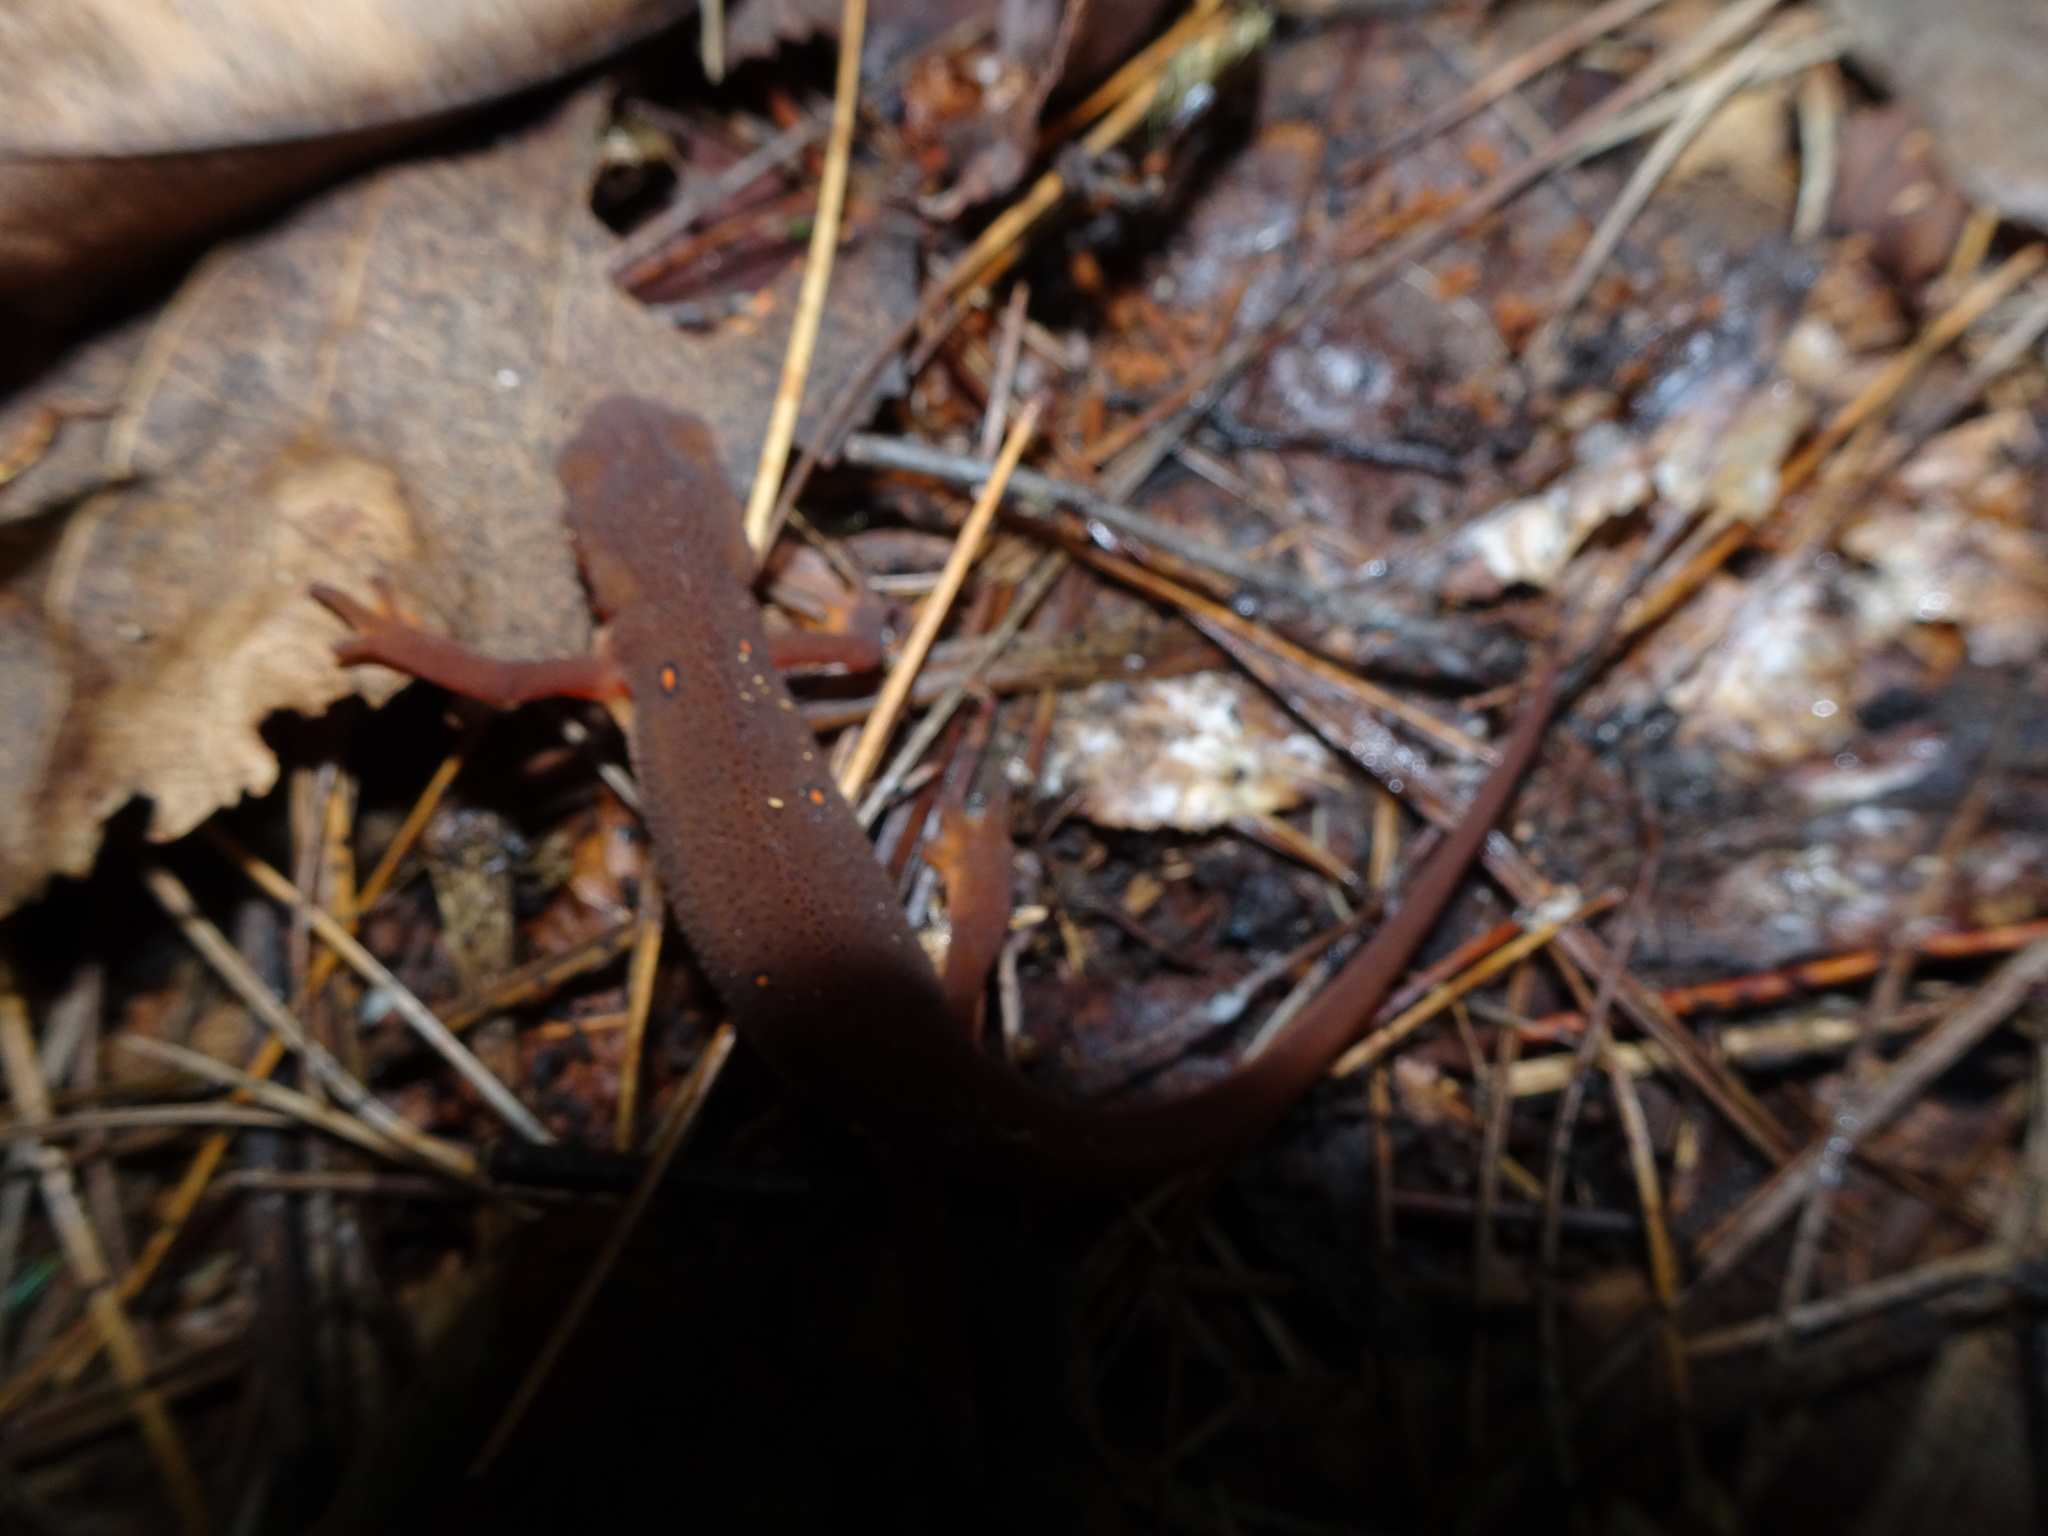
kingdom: Animalia
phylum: Chordata
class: Amphibia
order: Caudata
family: Salamandridae
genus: Notophthalmus
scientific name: Notophthalmus viridescens
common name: Eastern newt
